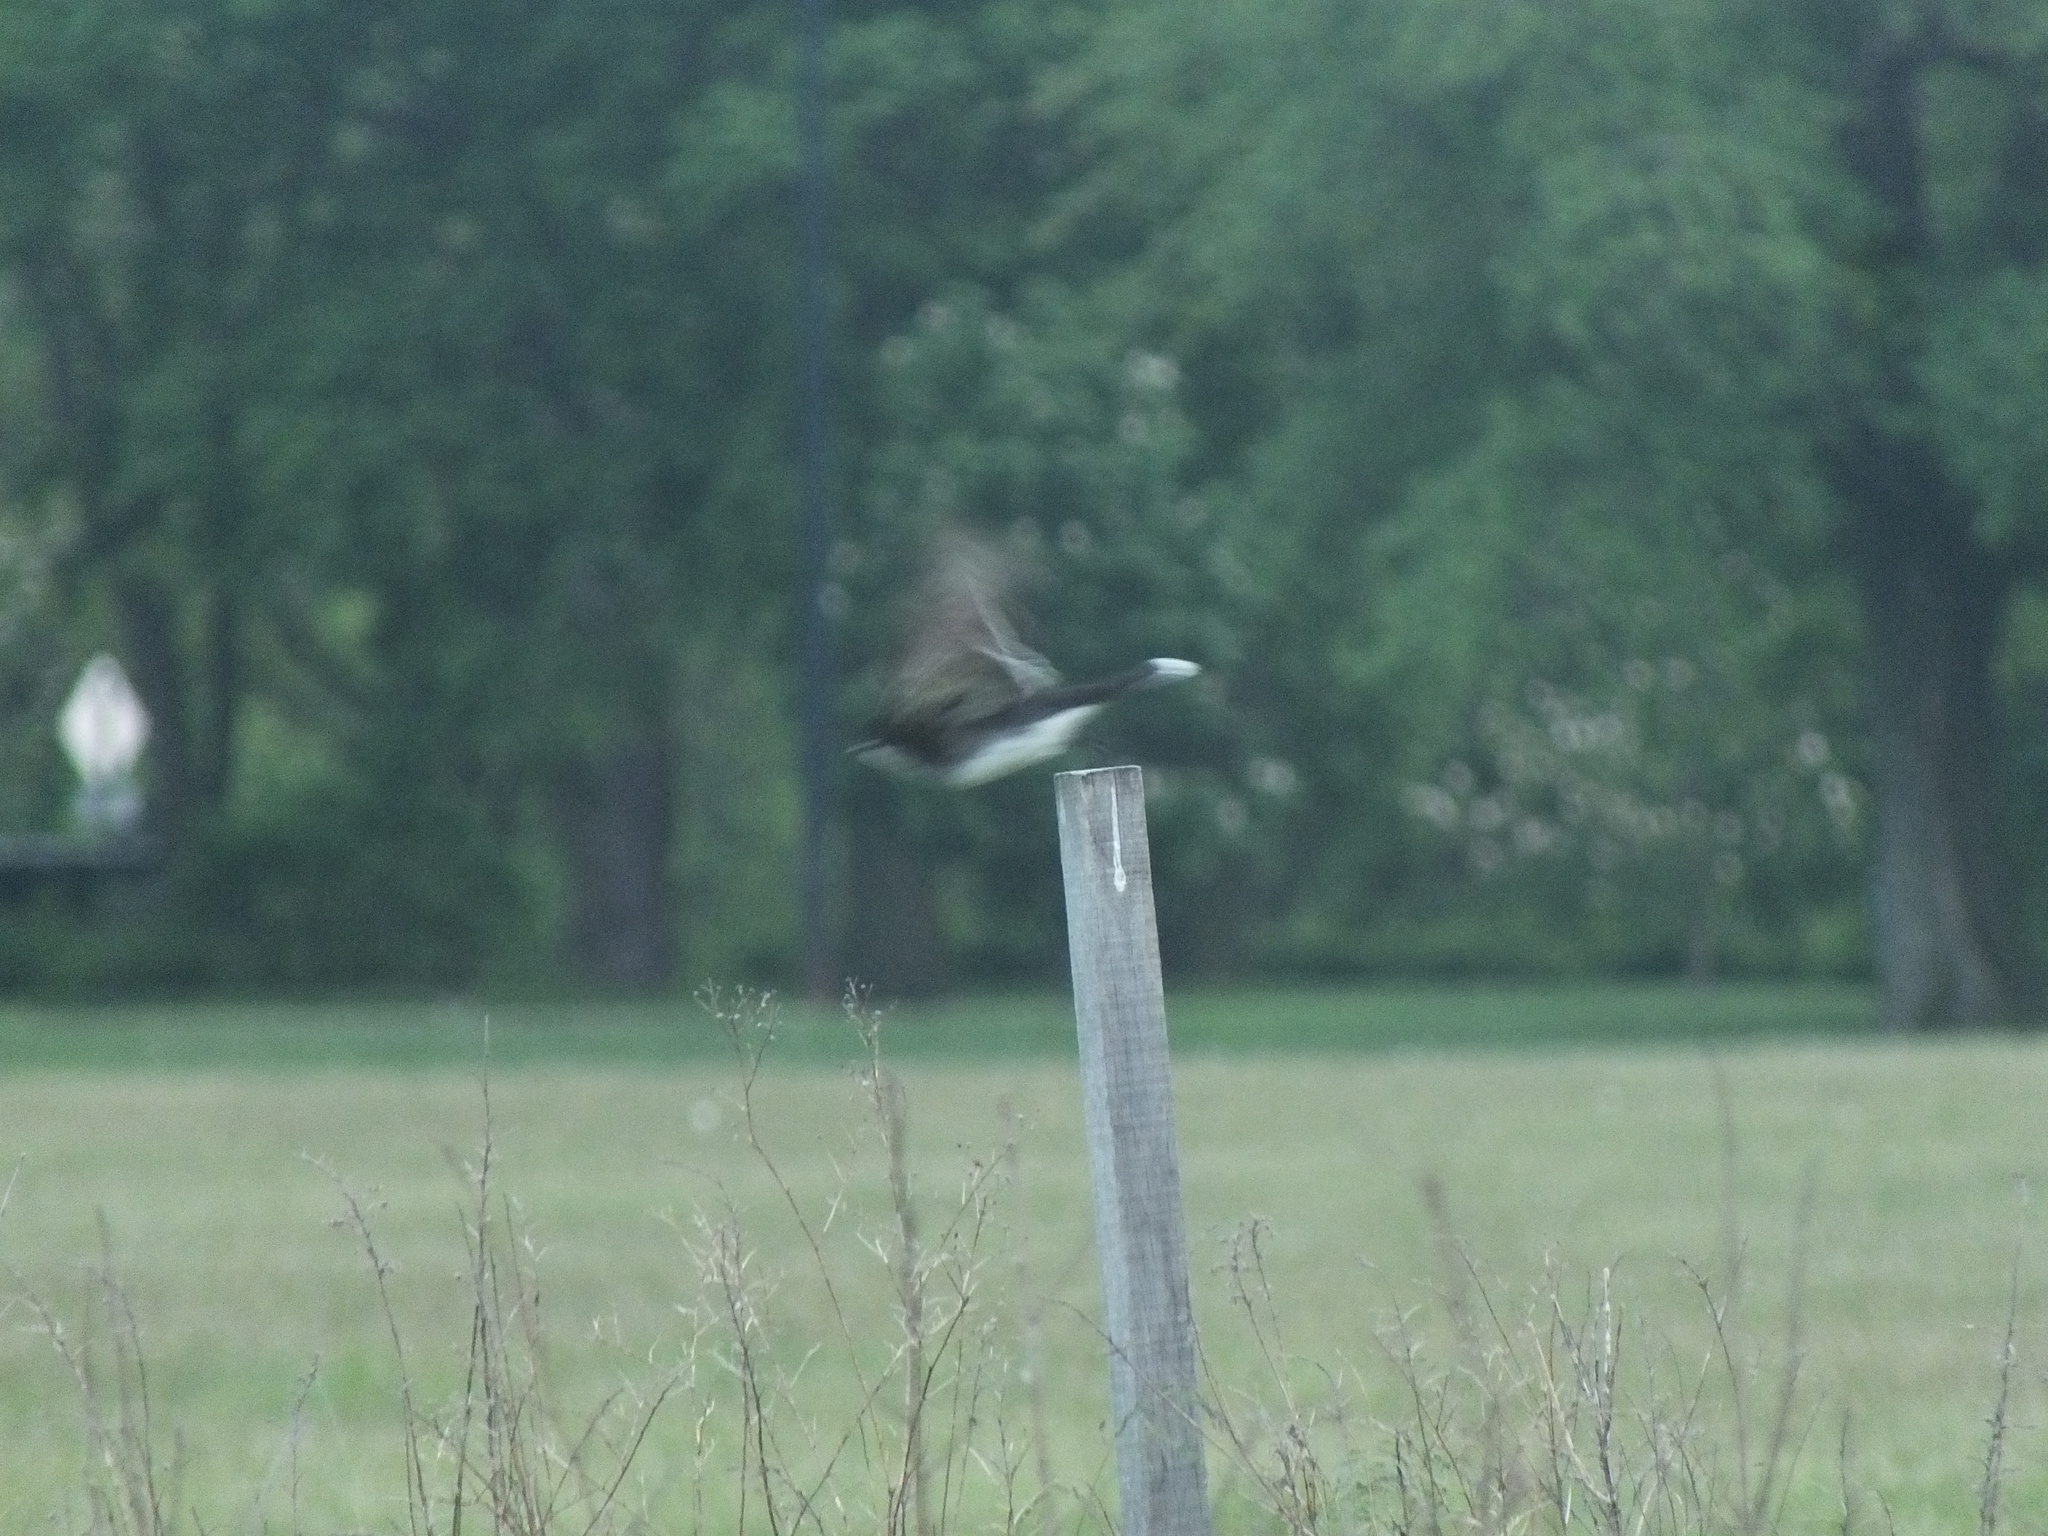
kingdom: Animalia
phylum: Chordata
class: Aves
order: Passeriformes
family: Tyrannidae
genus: Tyrannus
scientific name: Tyrannus tyrannus
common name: Eastern kingbird
